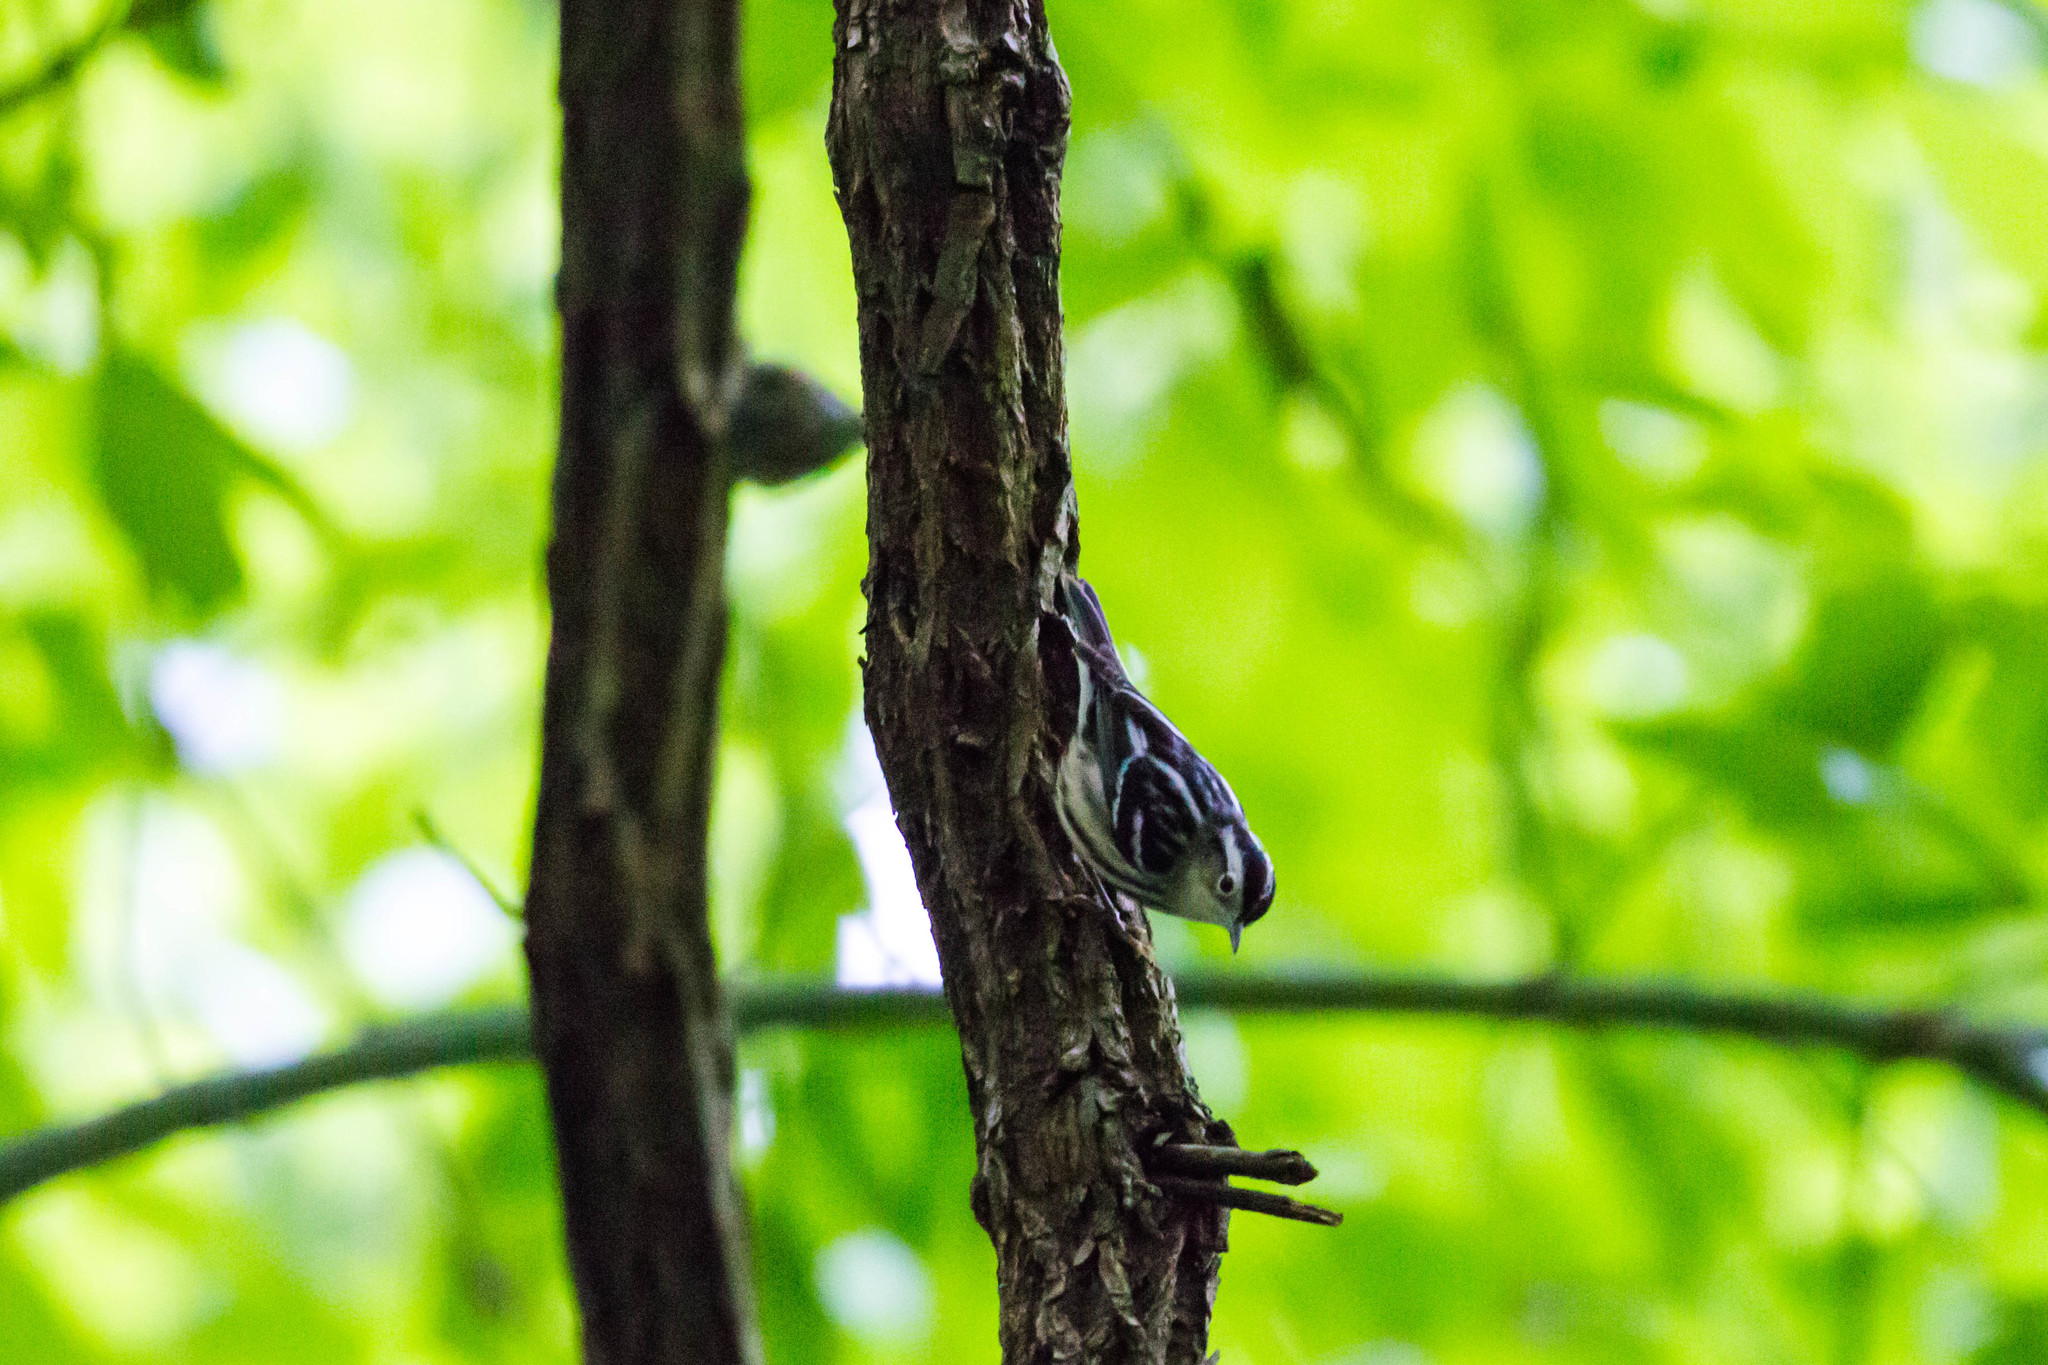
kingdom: Animalia
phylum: Chordata
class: Aves
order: Passeriformes
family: Parulidae
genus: Mniotilta
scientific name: Mniotilta varia
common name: Black-and-white warbler
